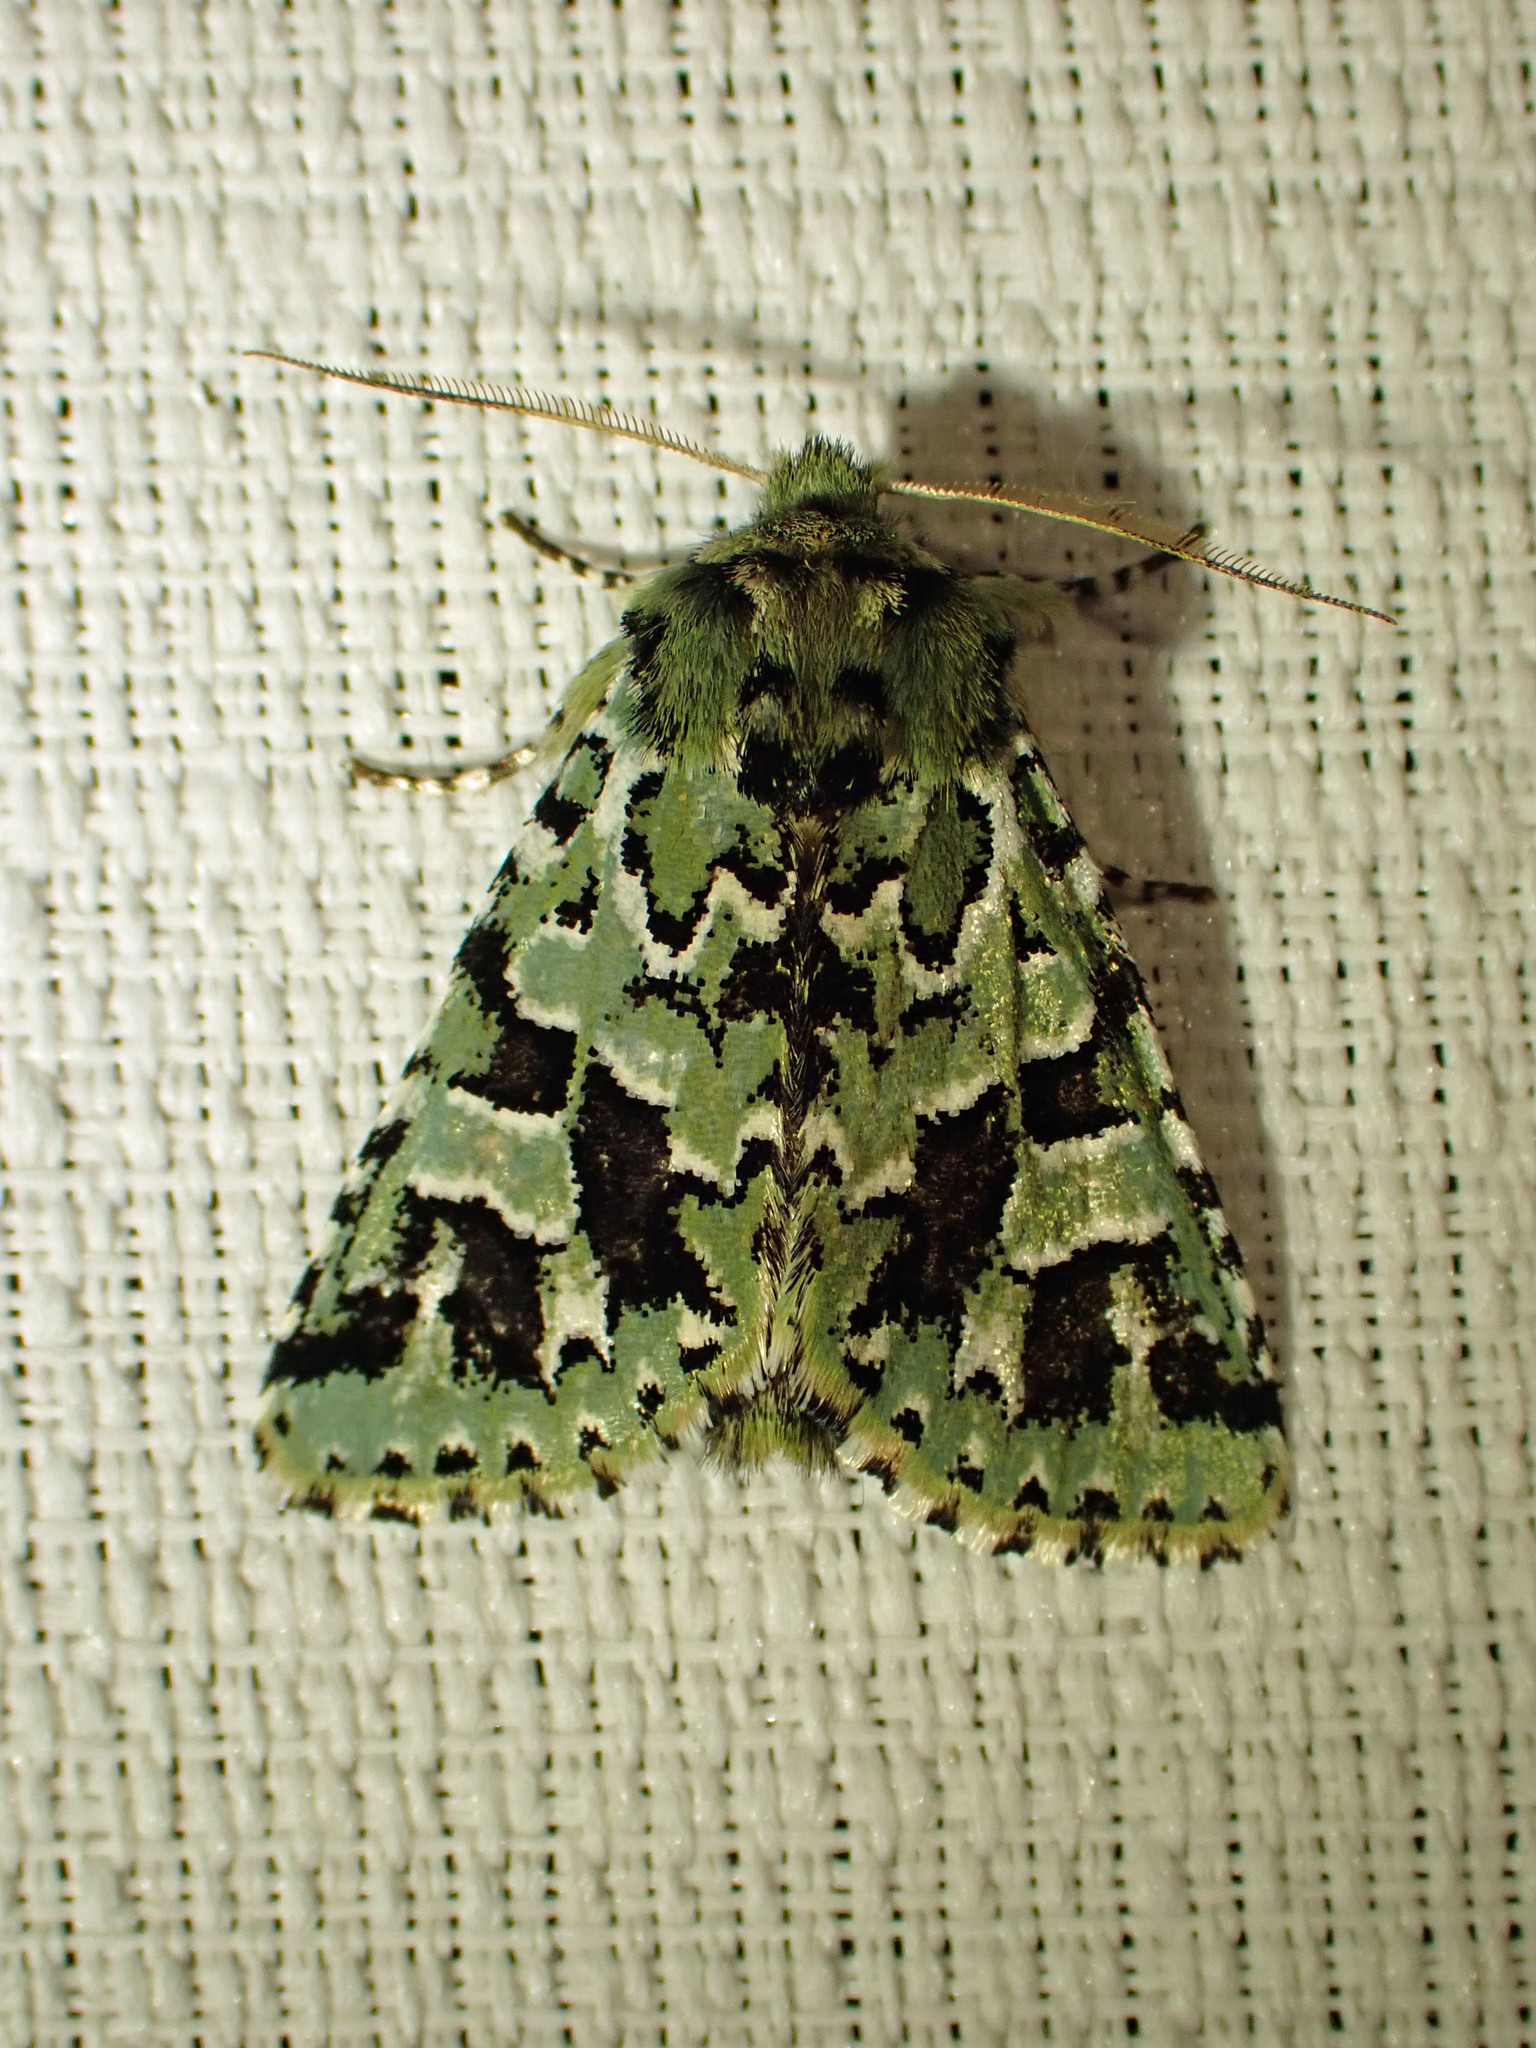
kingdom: Animalia
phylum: Arthropoda
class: Insecta
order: Lepidoptera
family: Noctuidae
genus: Feralia
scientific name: Feralia comstocki
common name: Comstock's sallow
